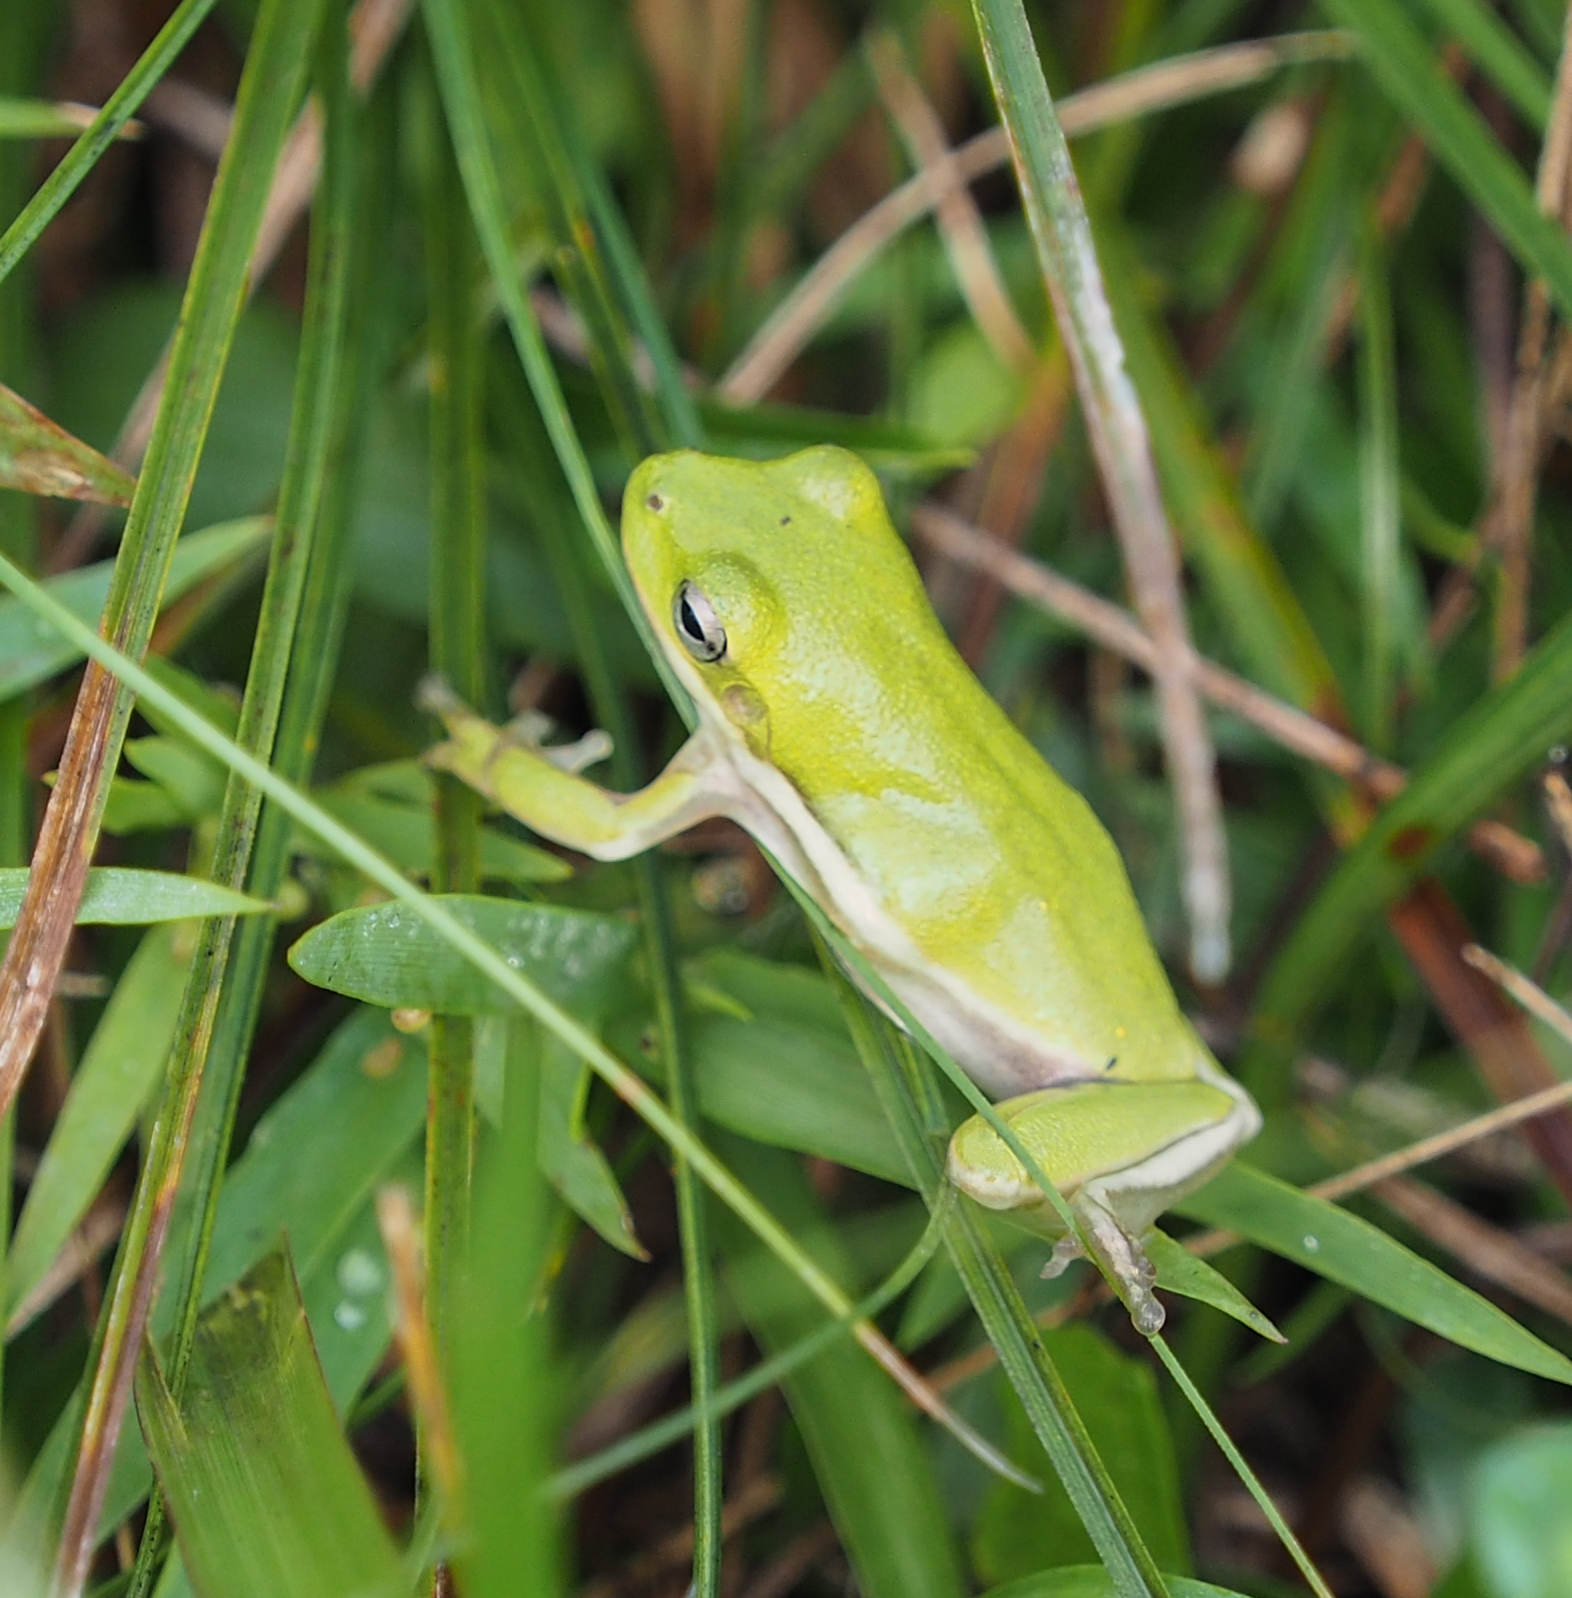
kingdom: Animalia
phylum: Chordata
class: Amphibia
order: Anura
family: Hylidae
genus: Dryophytes
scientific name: Dryophytes cinereus
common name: Green treefrog
